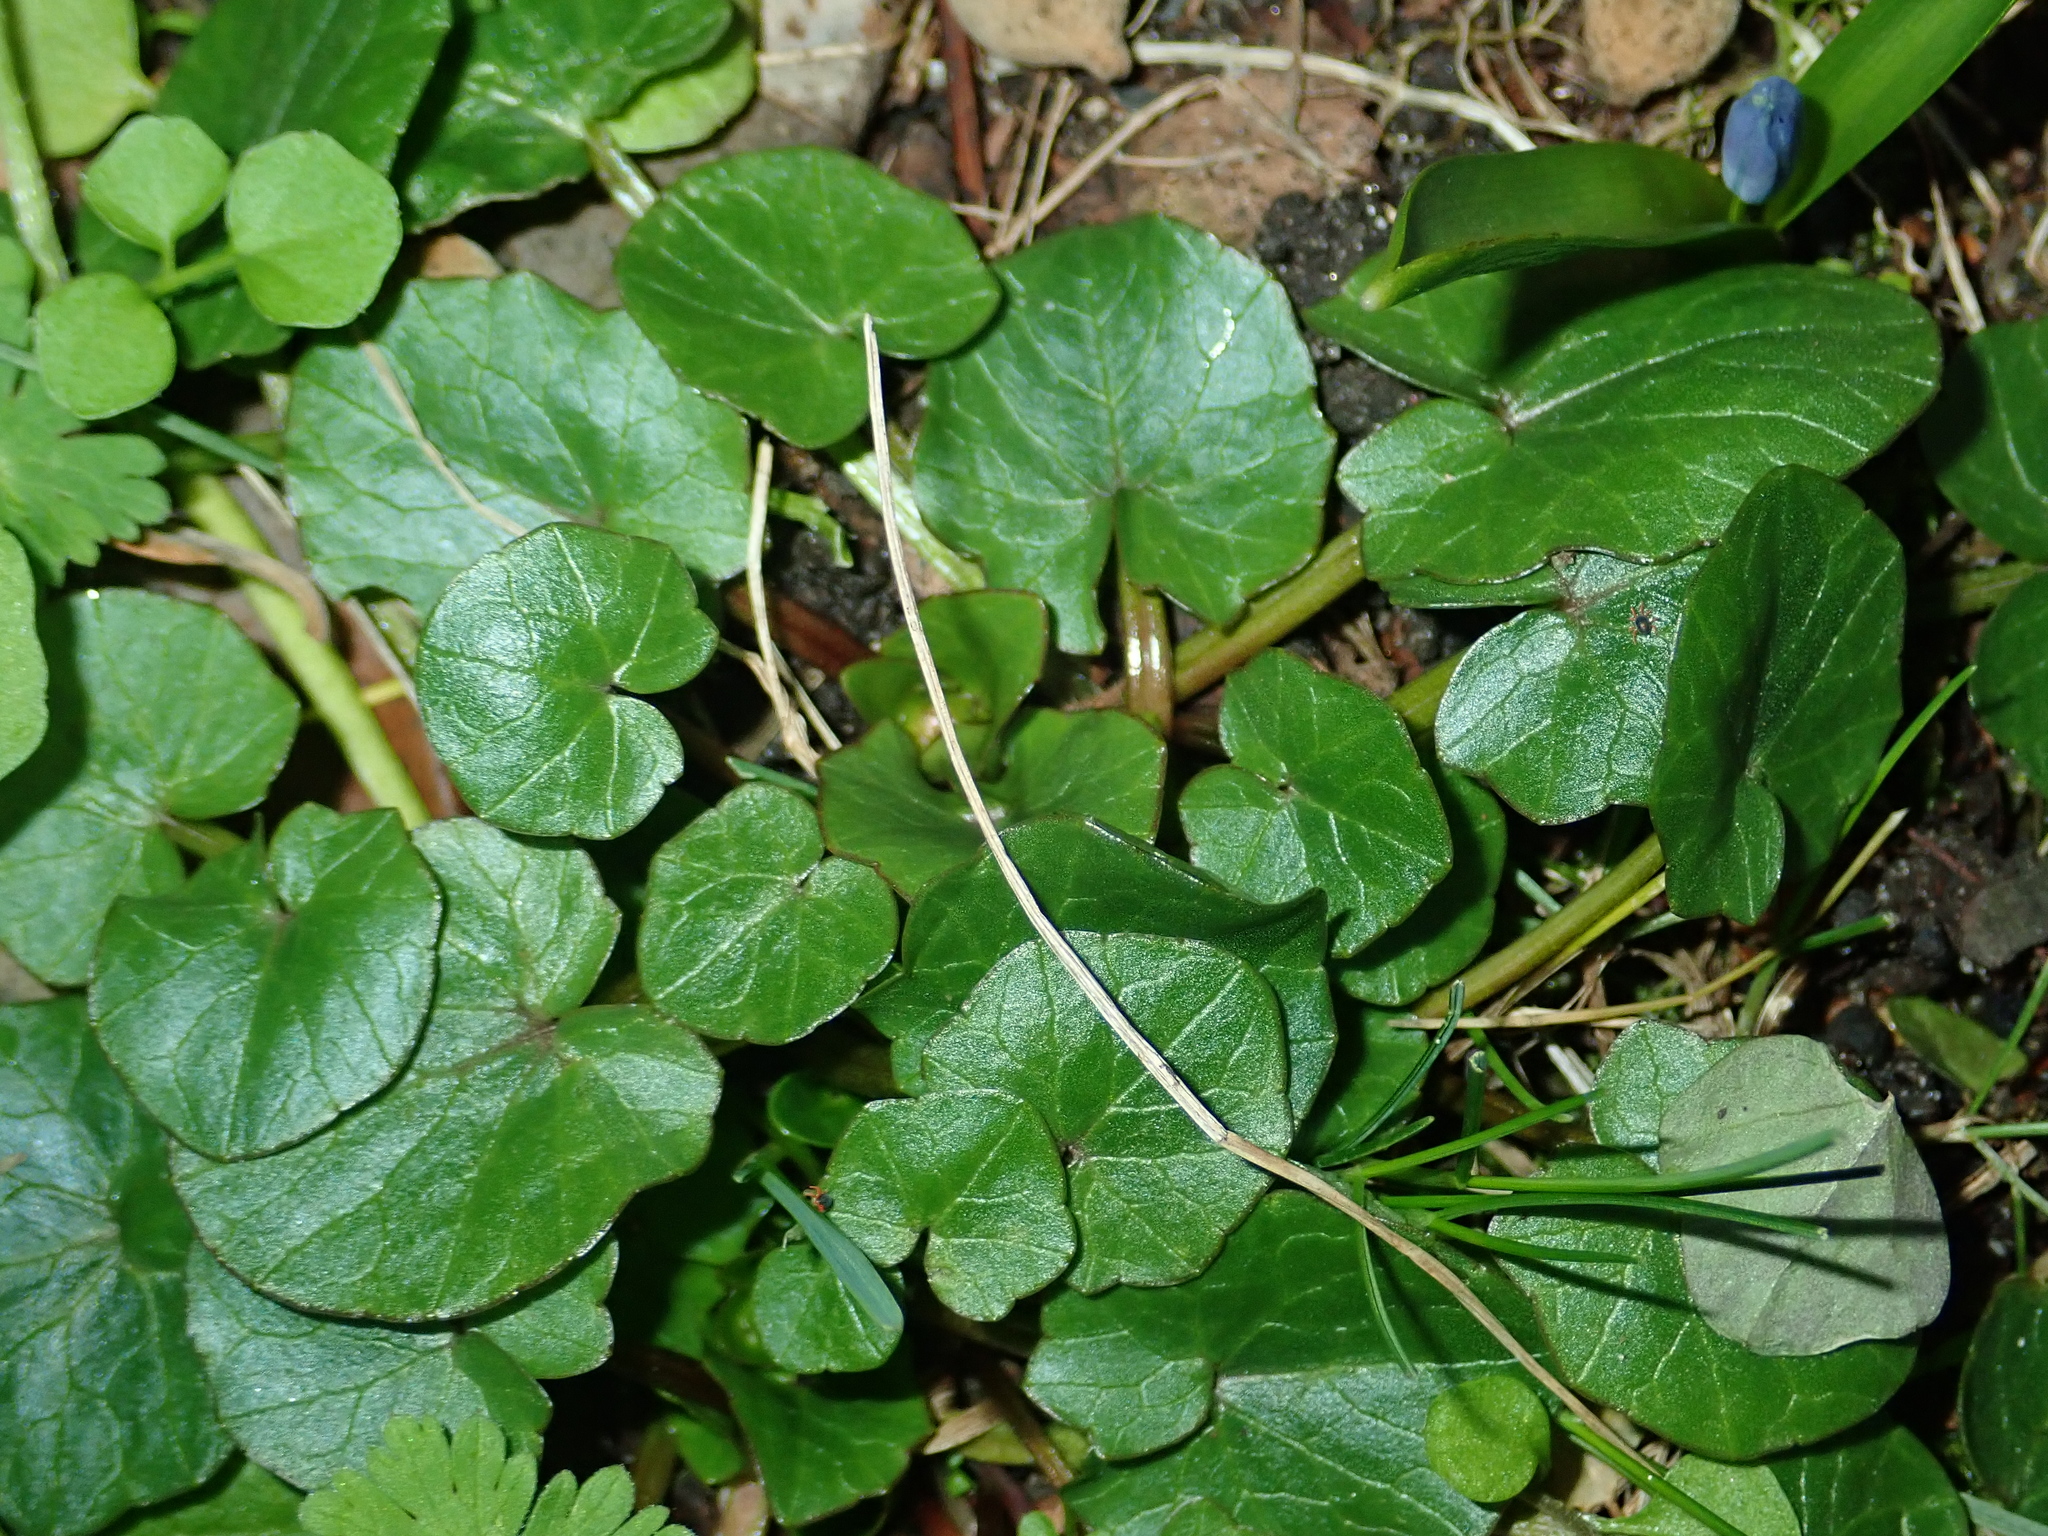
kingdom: Plantae
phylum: Tracheophyta
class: Magnoliopsida
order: Ranunculales
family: Ranunculaceae
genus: Ficaria
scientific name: Ficaria verna
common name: Lesser celandine
